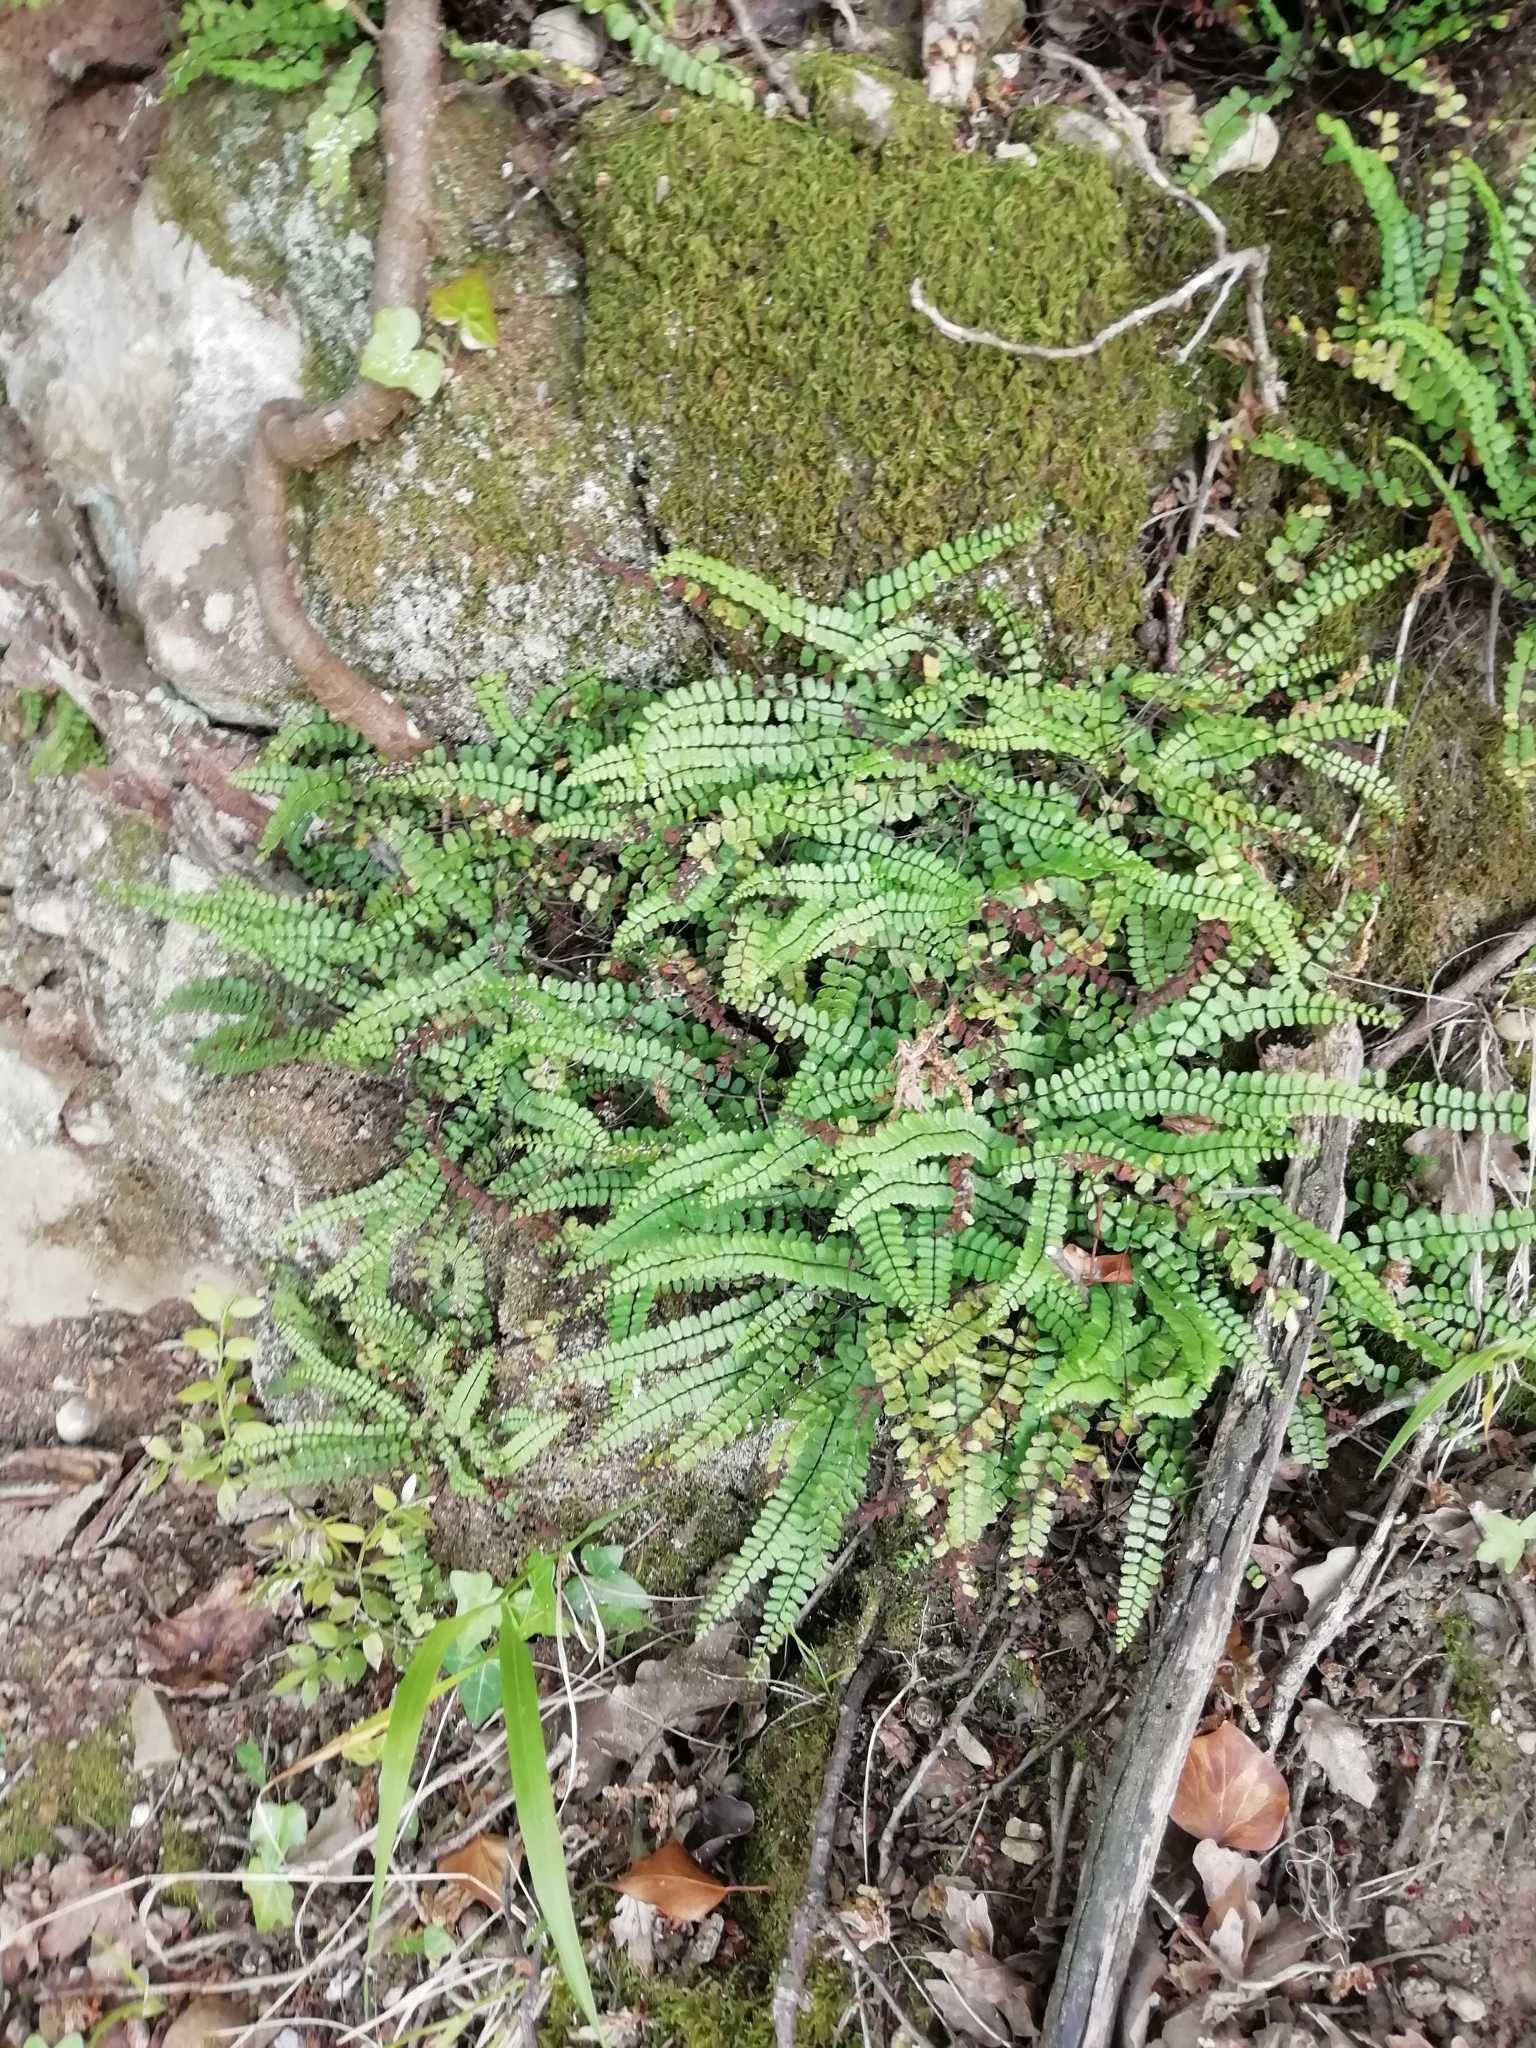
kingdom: Plantae
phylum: Tracheophyta
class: Polypodiopsida
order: Polypodiales
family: Aspleniaceae
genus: Asplenium
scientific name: Asplenium trichomanes
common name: Maidenhair spleenwort
